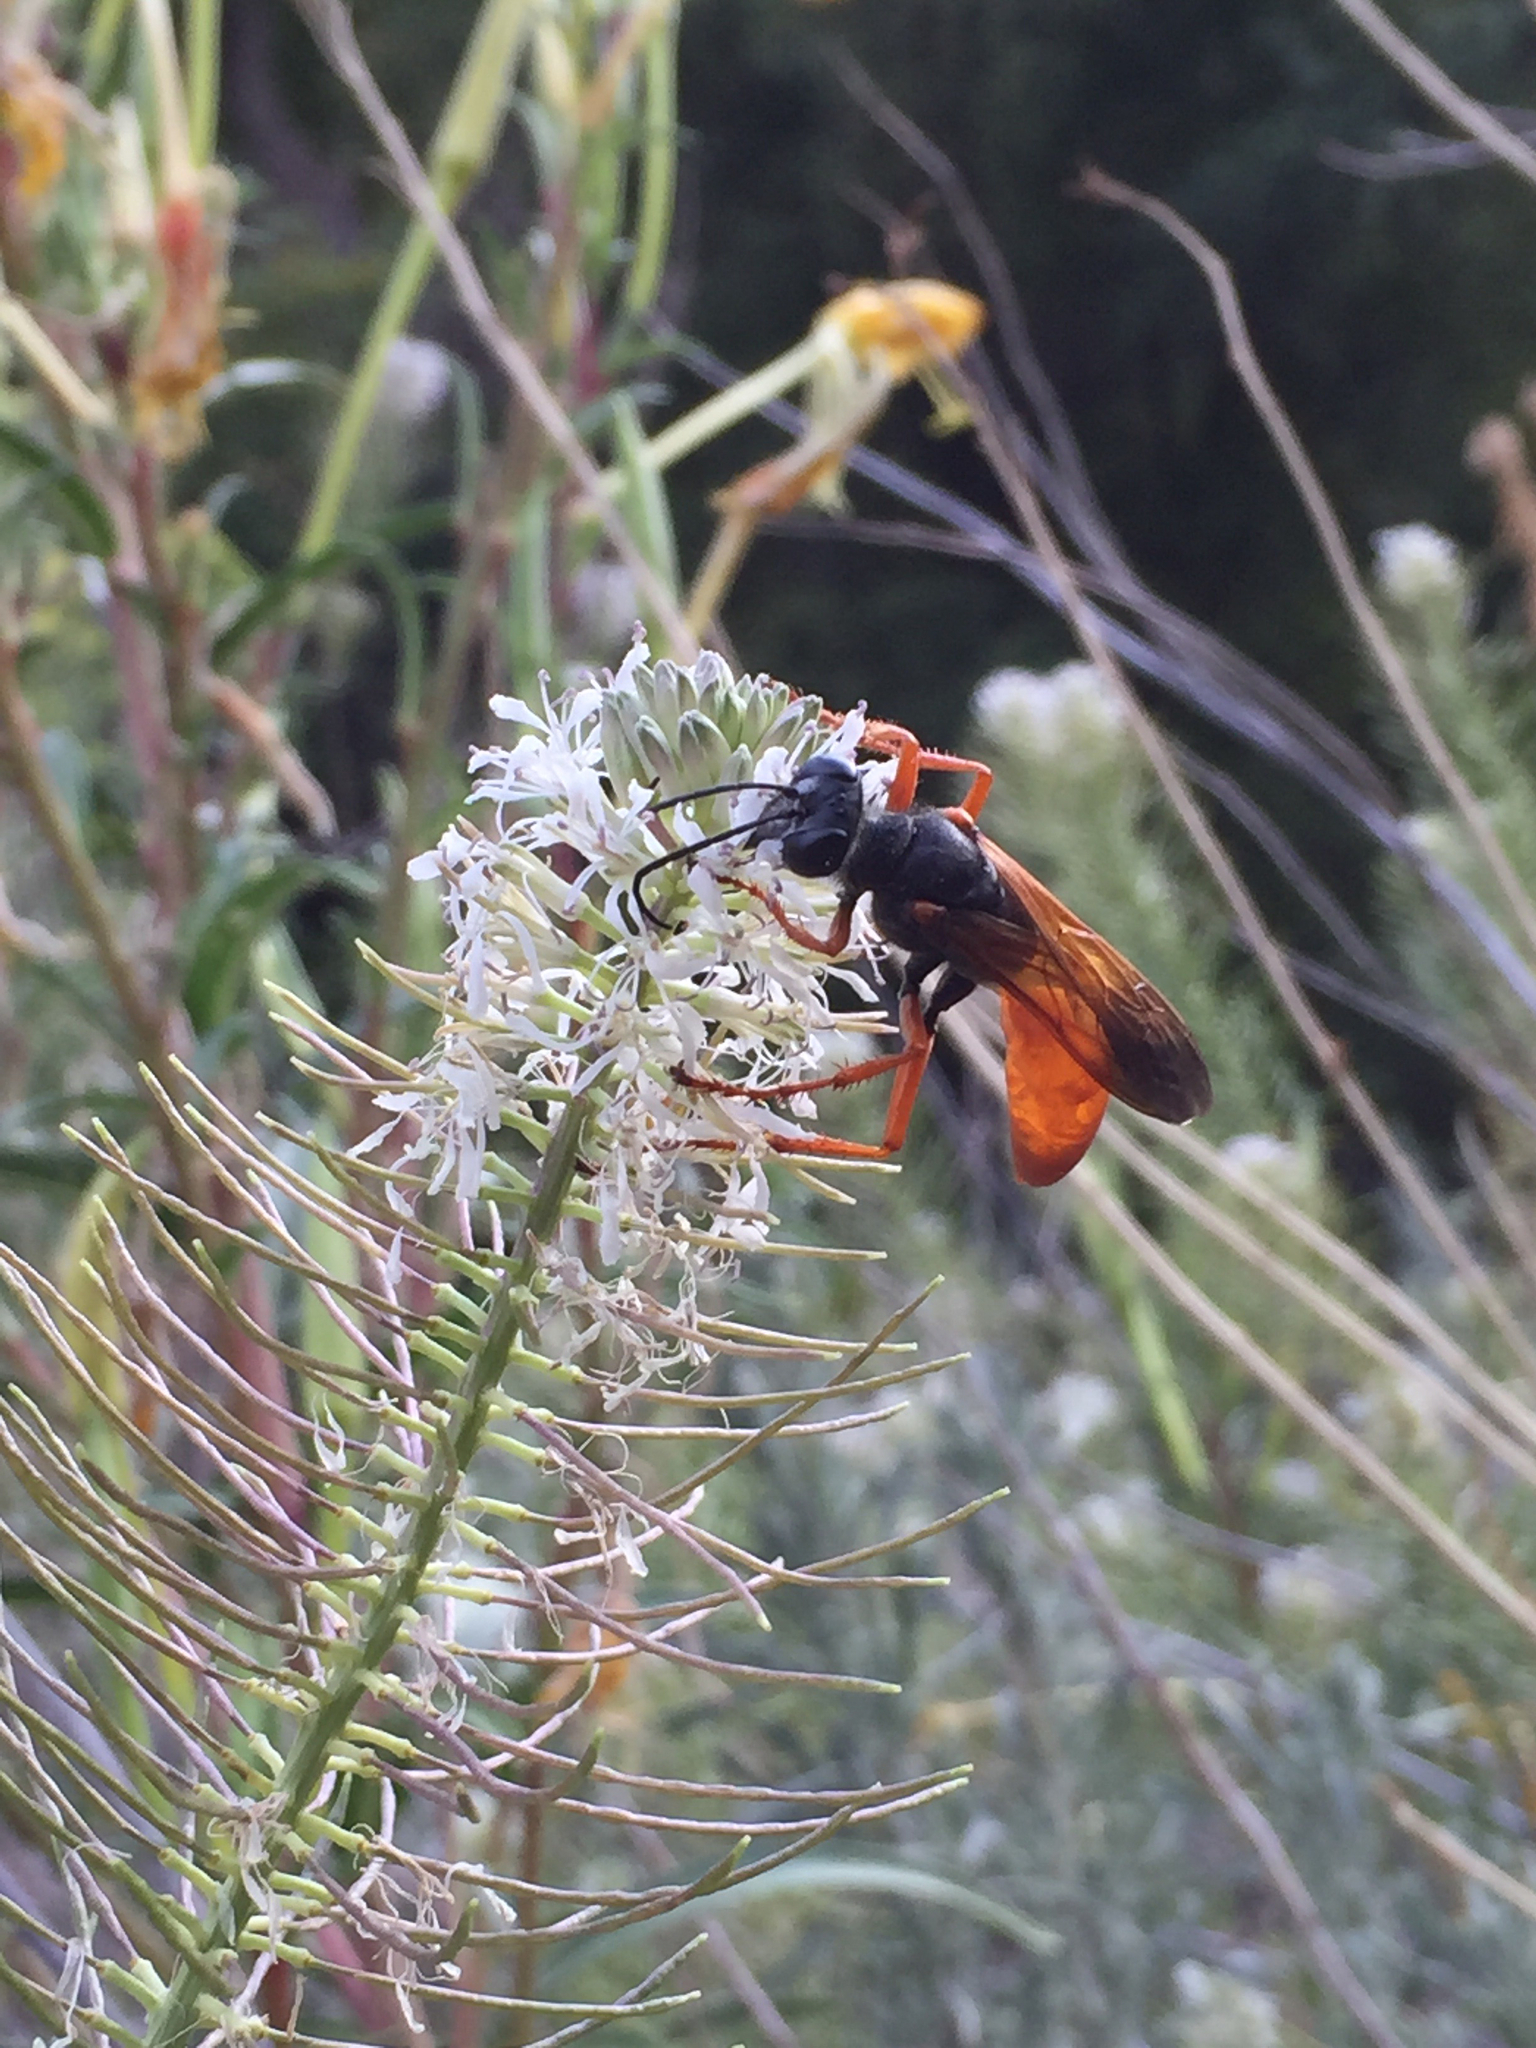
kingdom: Animalia
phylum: Arthropoda
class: Insecta
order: Hymenoptera
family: Sphecidae
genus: Sphex
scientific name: Sphex ashmeadi
